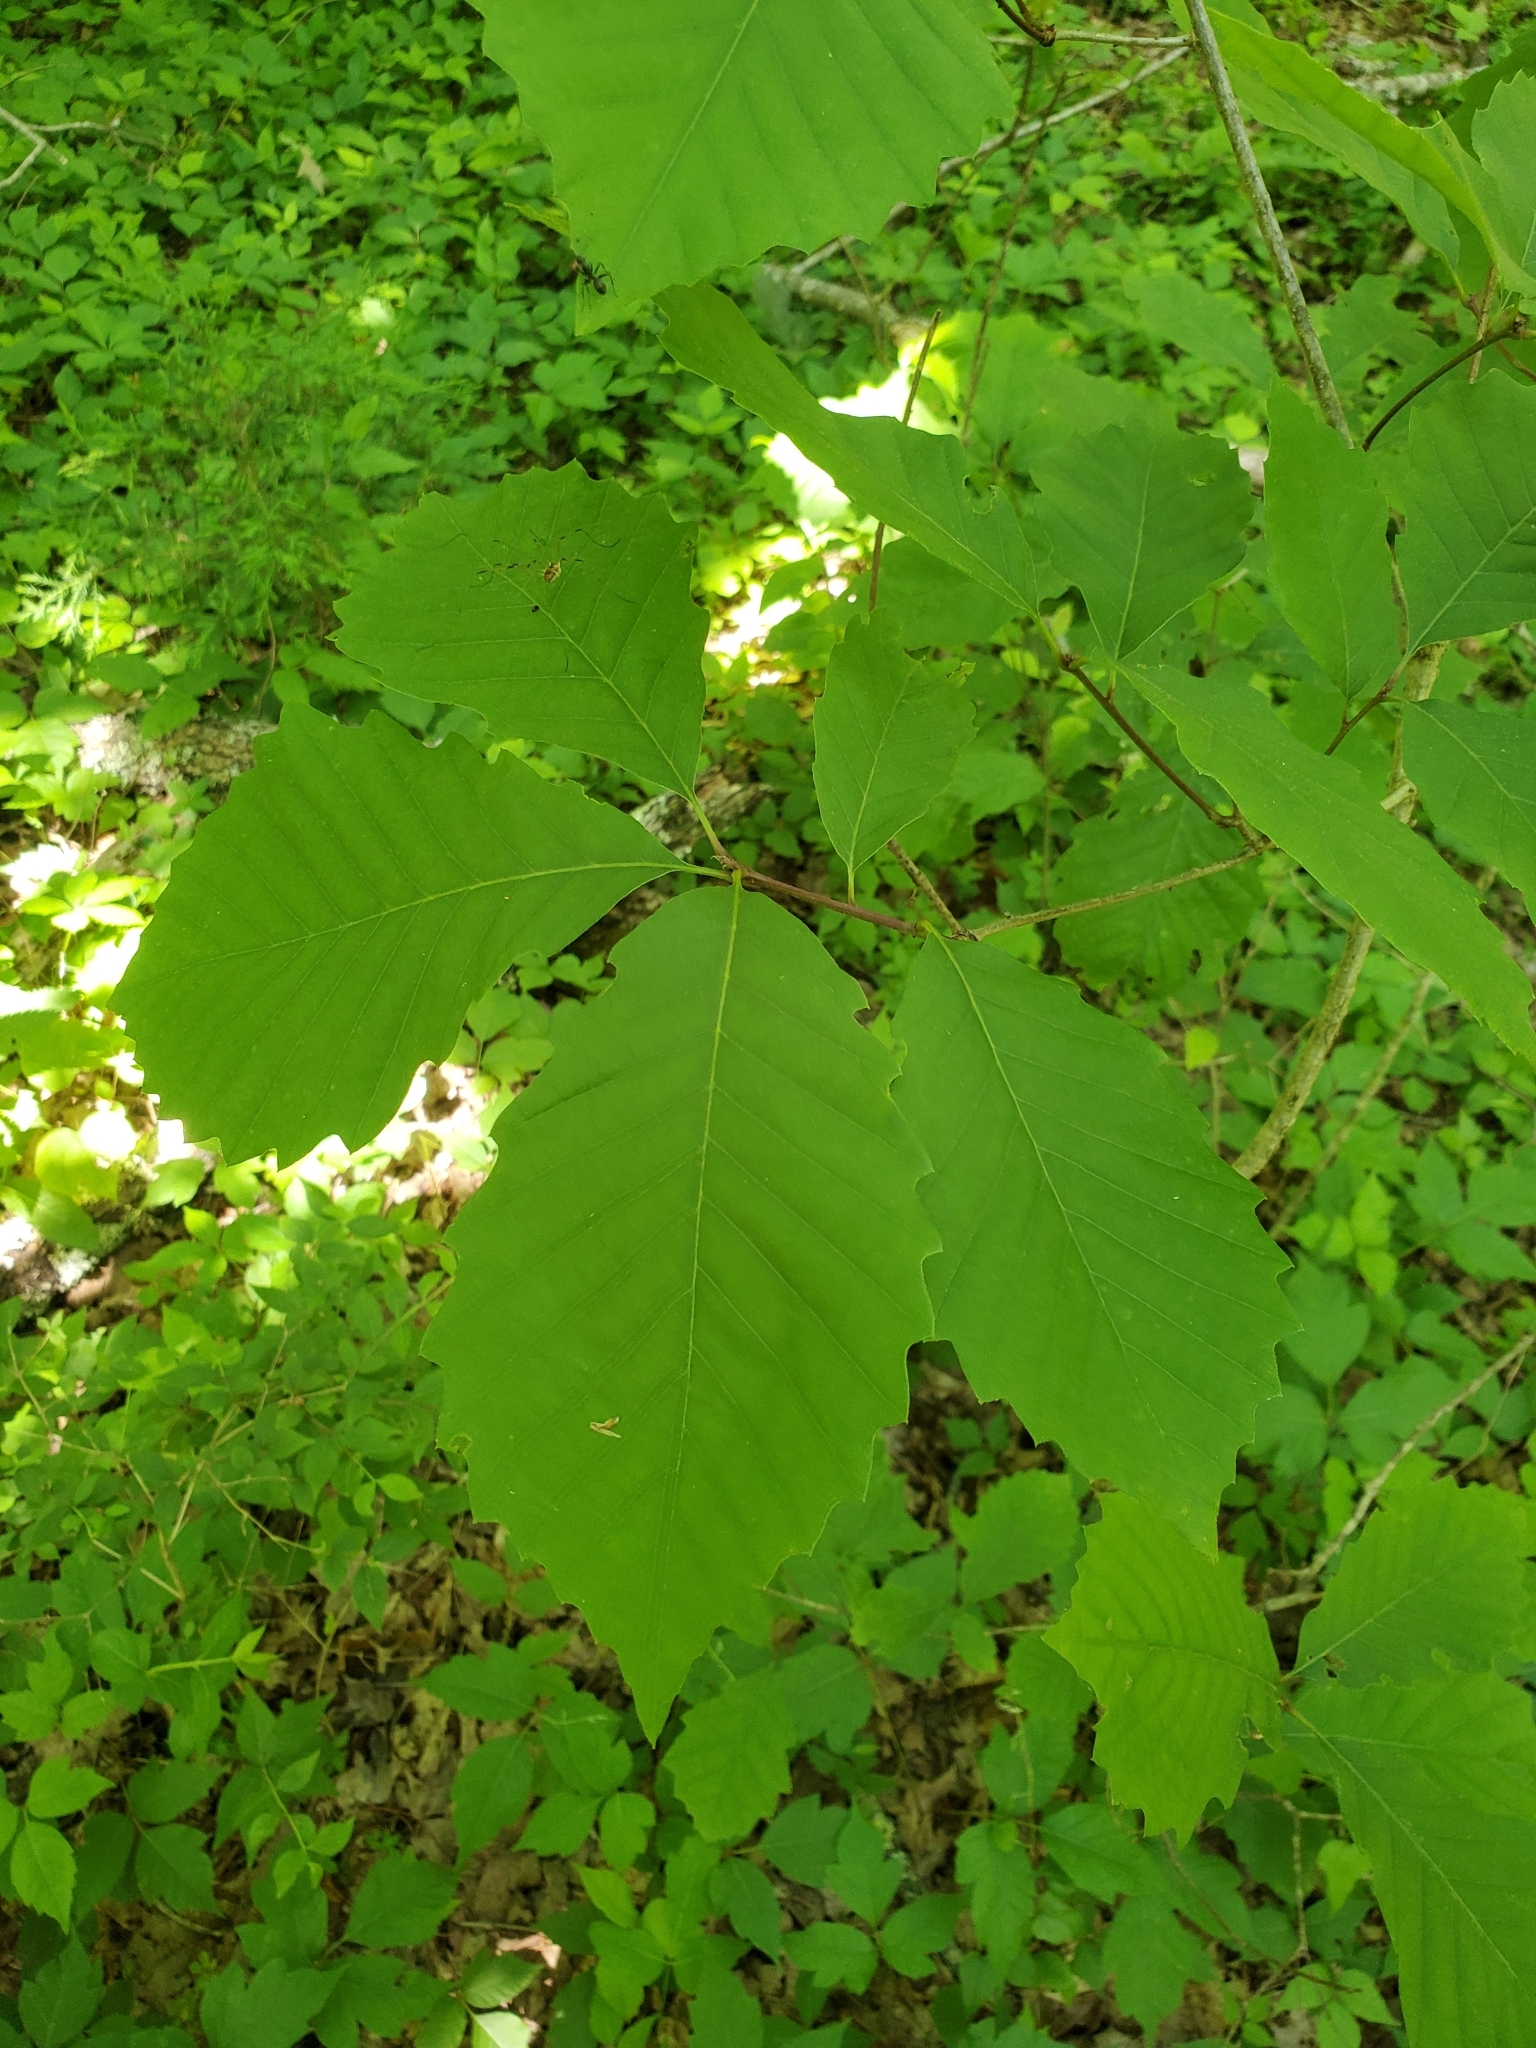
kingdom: Plantae
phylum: Tracheophyta
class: Magnoliopsida
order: Fagales
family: Fagaceae
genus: Quercus
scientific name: Quercus montana
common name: Chestnut oak
